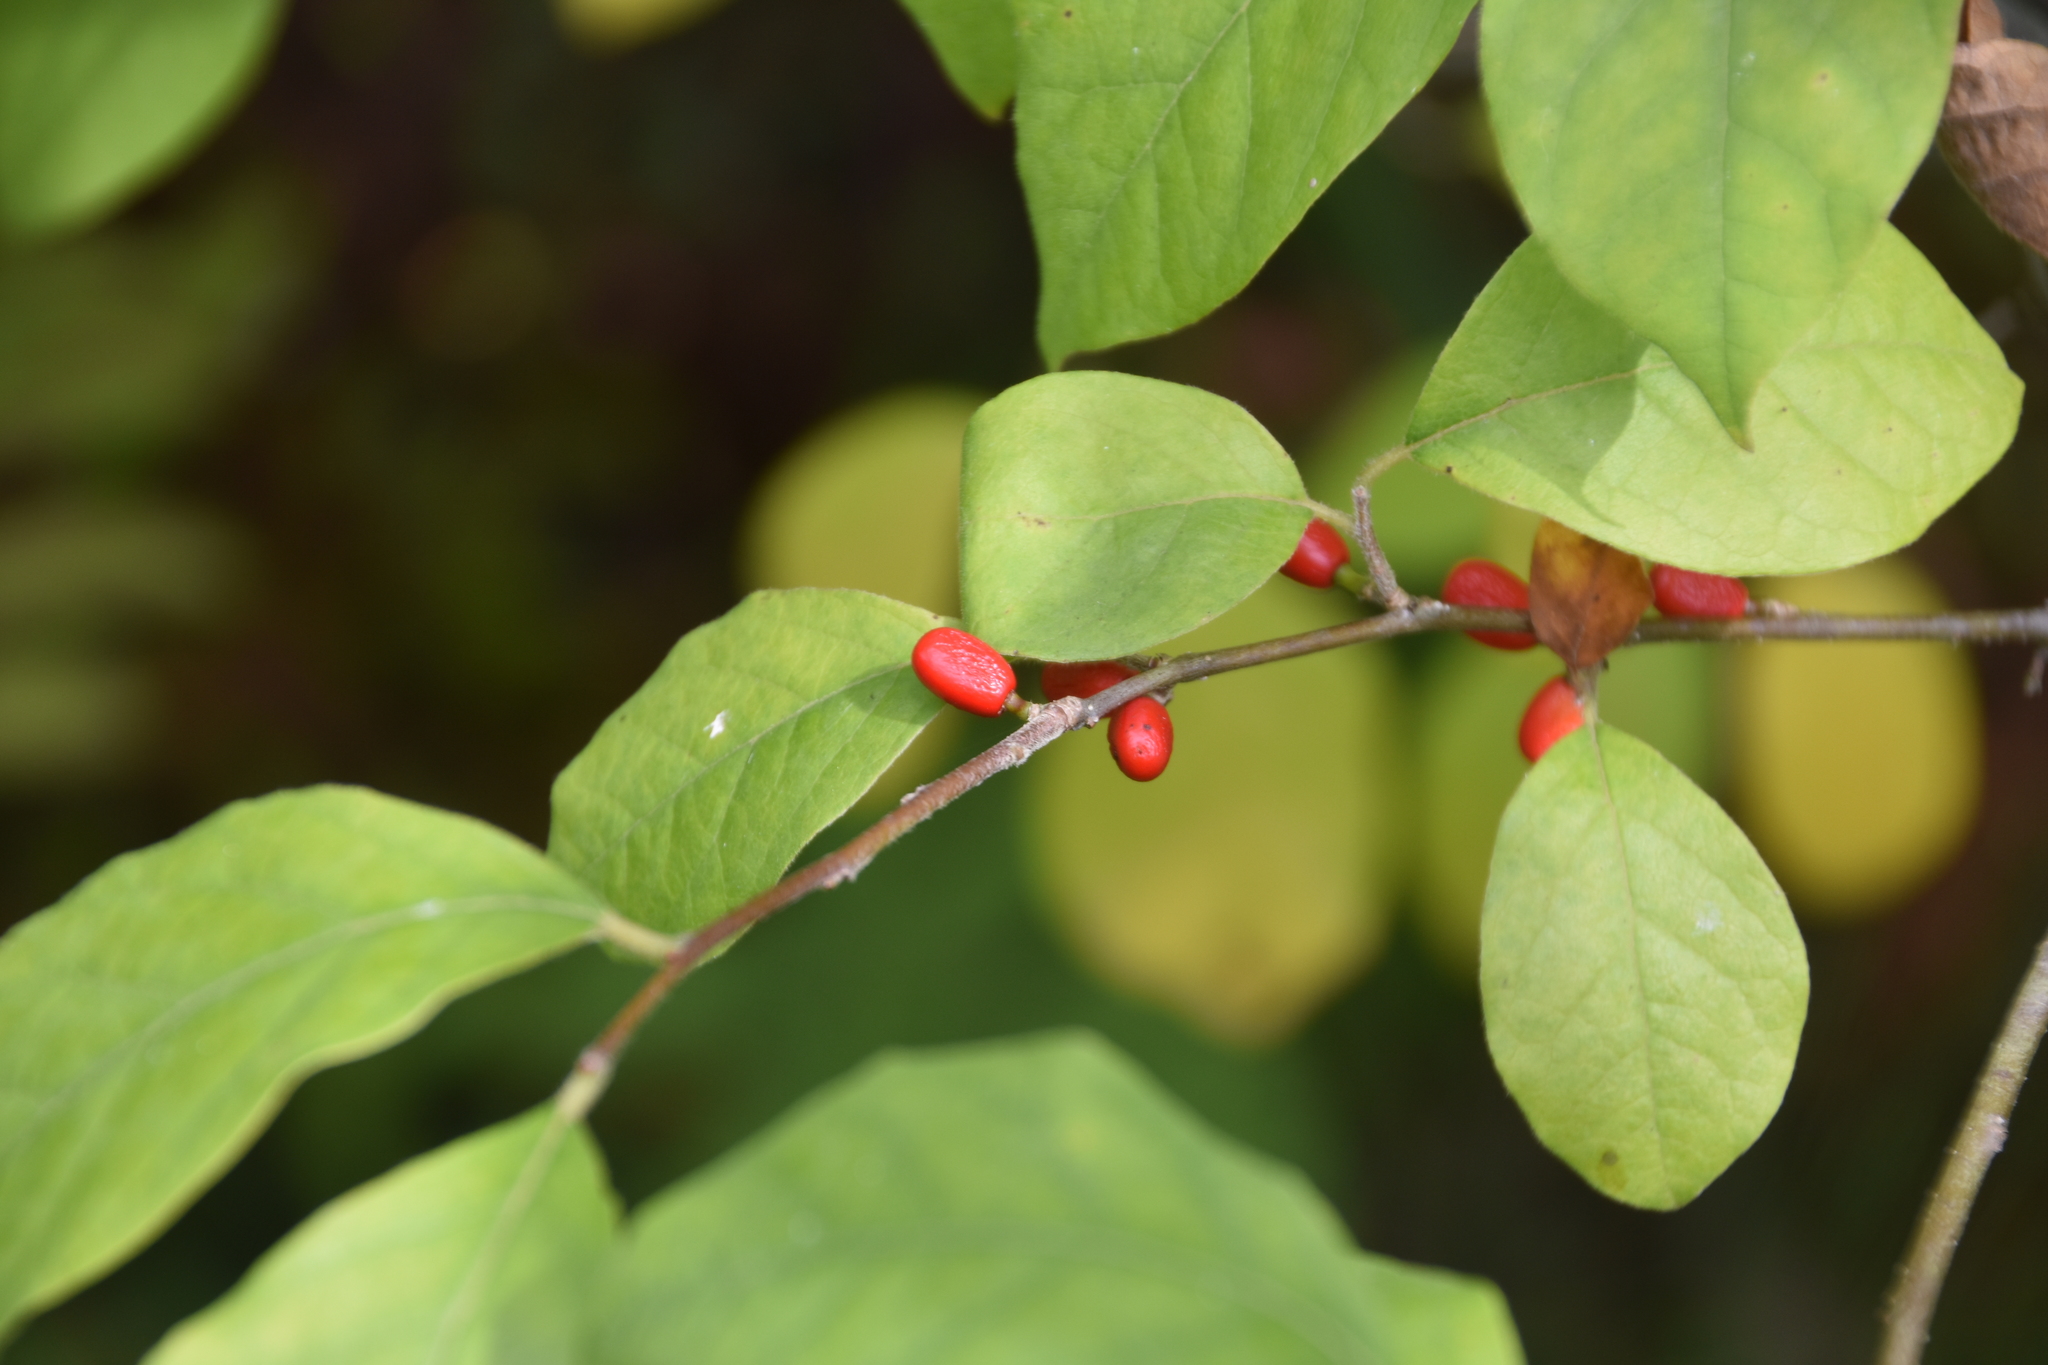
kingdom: Plantae
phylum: Tracheophyta
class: Magnoliopsida
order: Laurales
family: Lauraceae
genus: Lindera
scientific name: Lindera benzoin
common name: Spicebush
